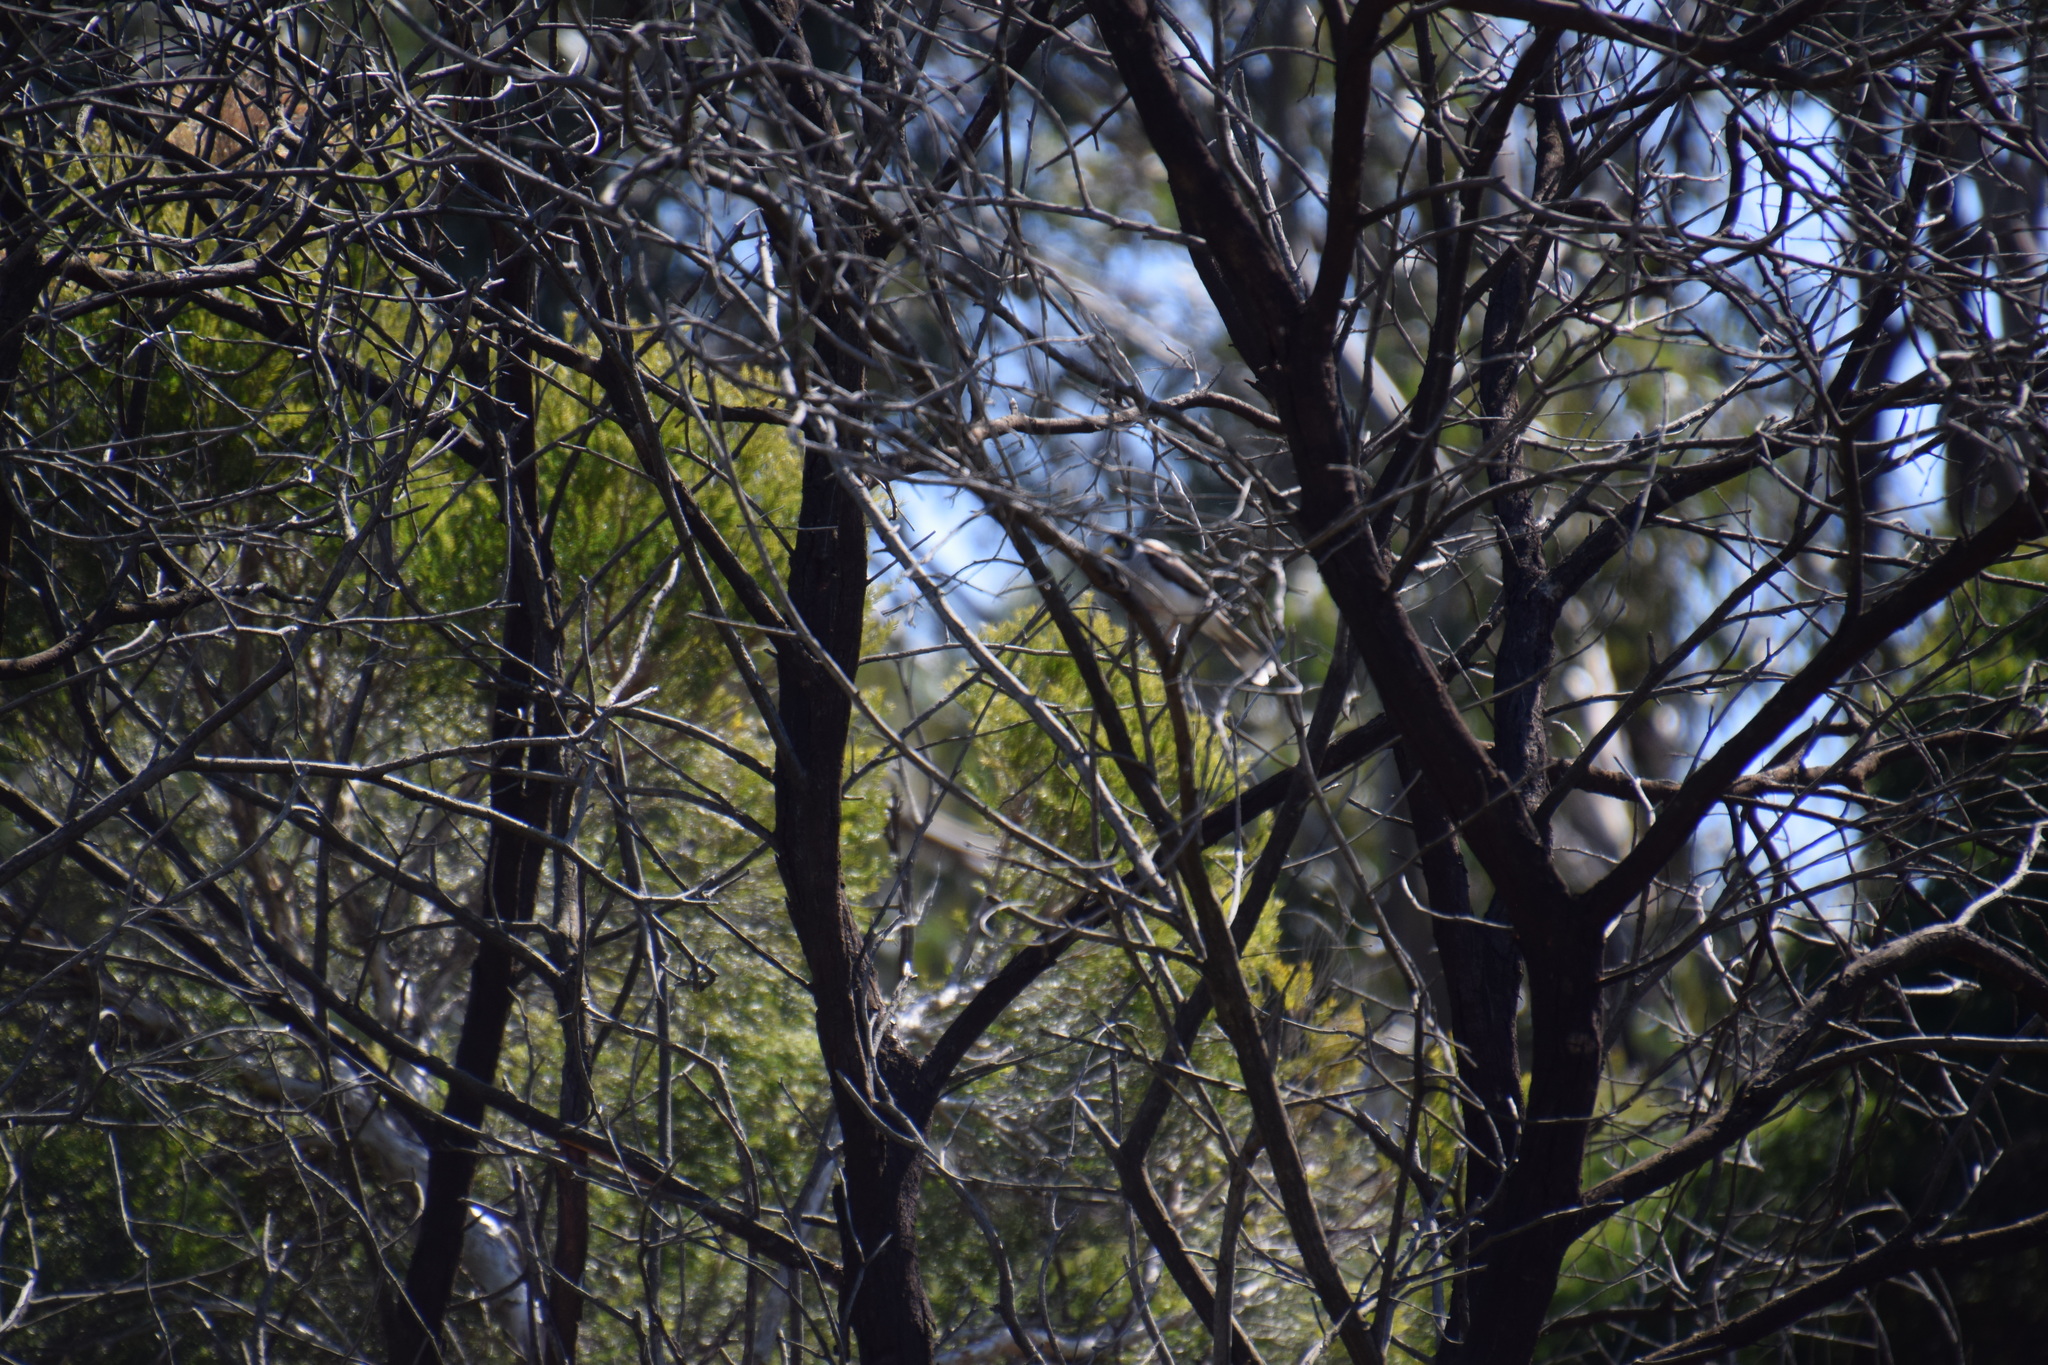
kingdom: Animalia
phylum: Chordata
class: Aves
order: Passeriformes
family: Meliphagidae
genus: Manorina
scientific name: Manorina melanocephala
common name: Noisy miner
